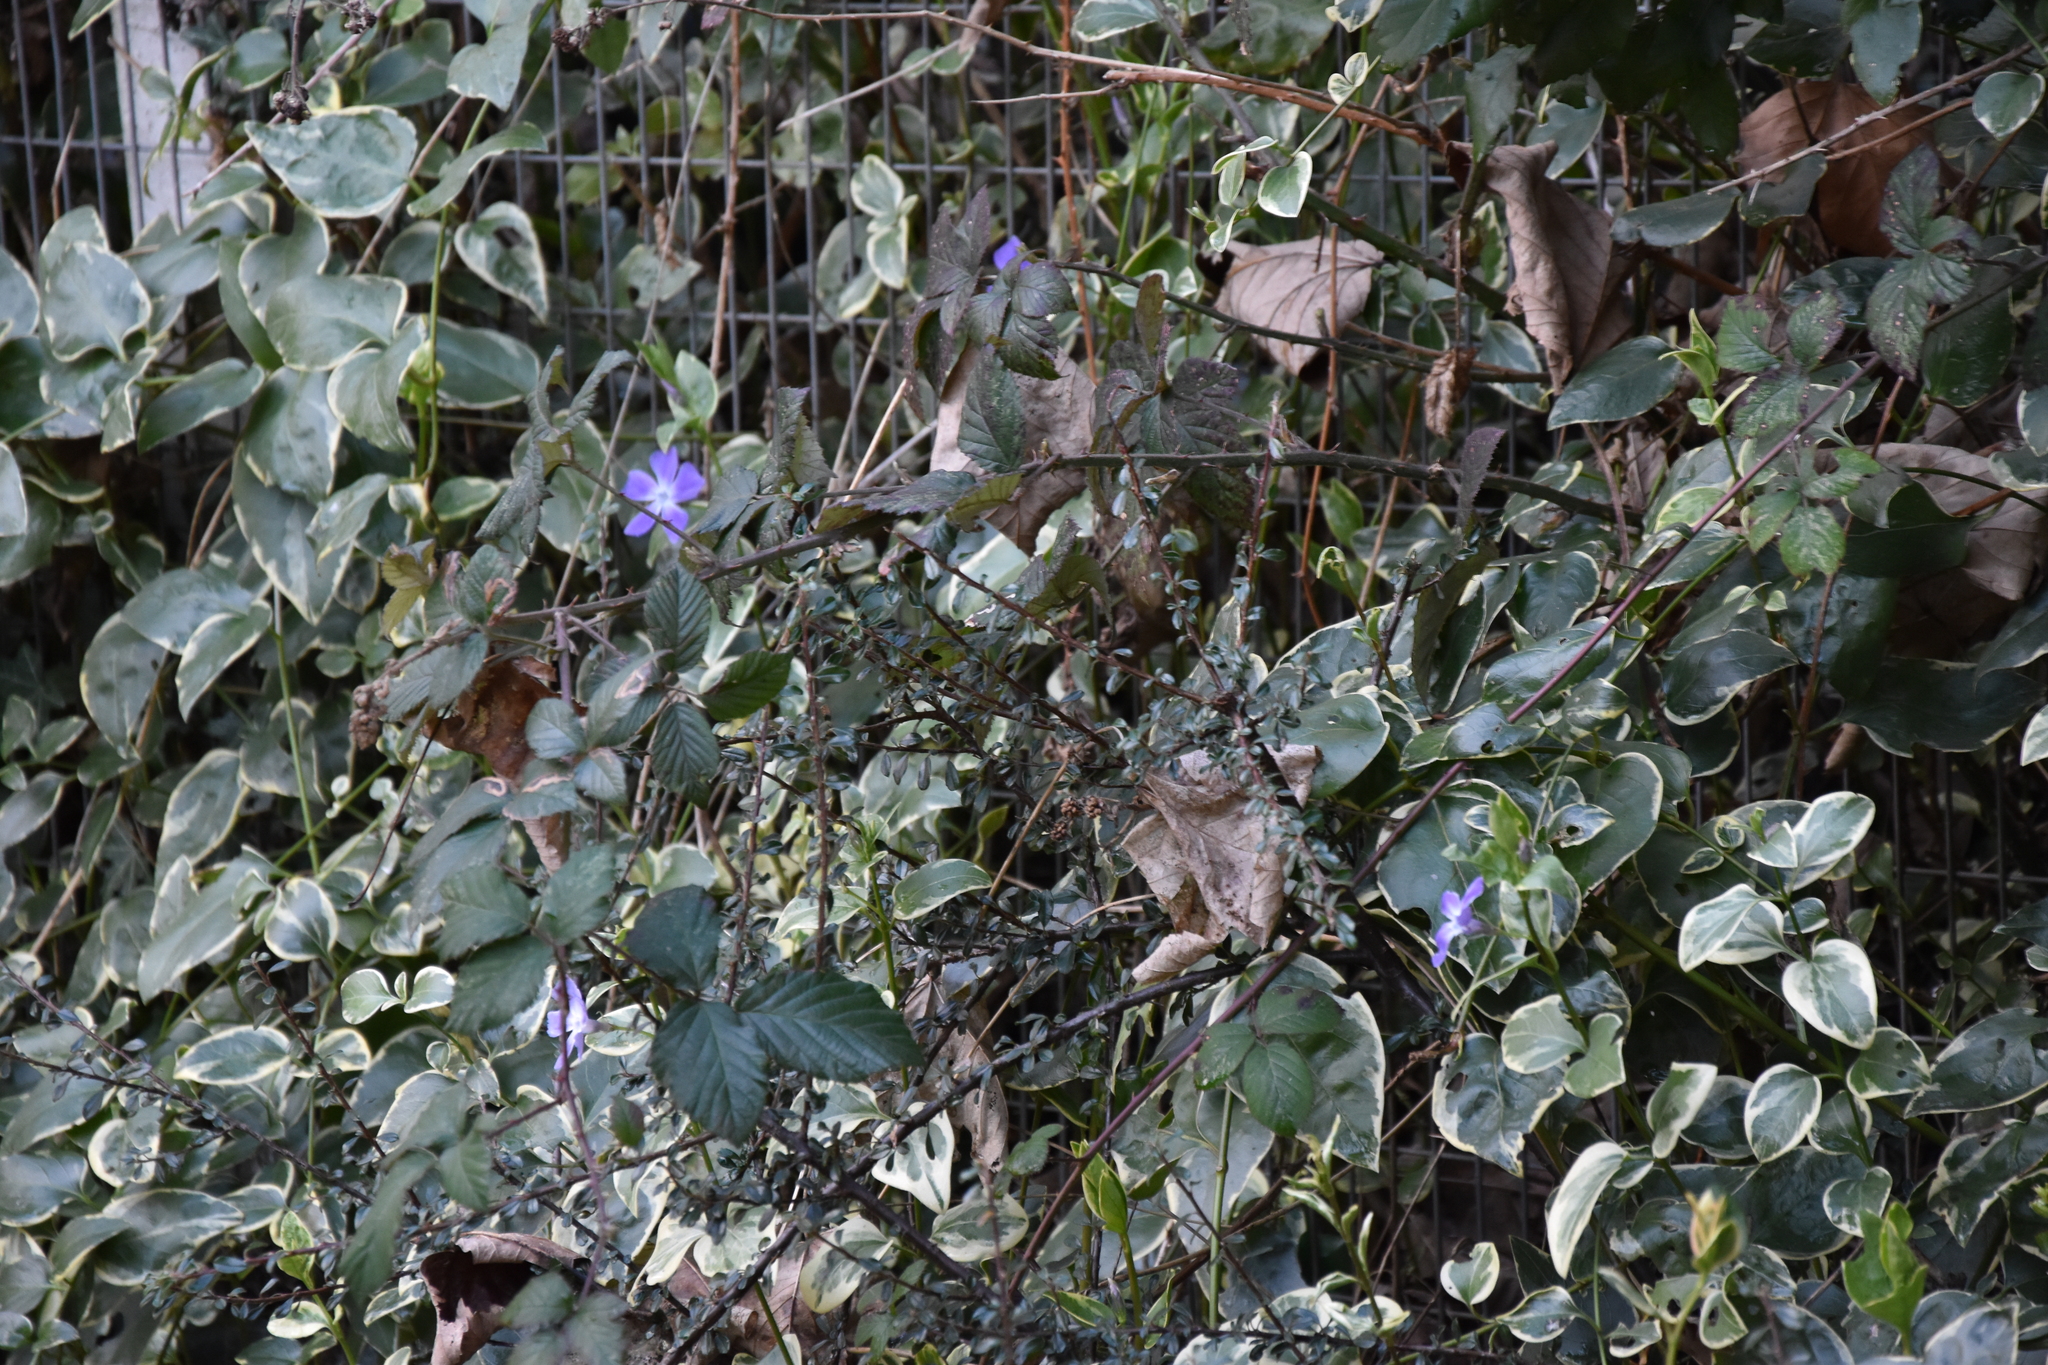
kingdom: Plantae
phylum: Tracheophyta
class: Magnoliopsida
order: Gentianales
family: Apocynaceae
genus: Vinca
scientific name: Vinca major
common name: Greater periwinkle
